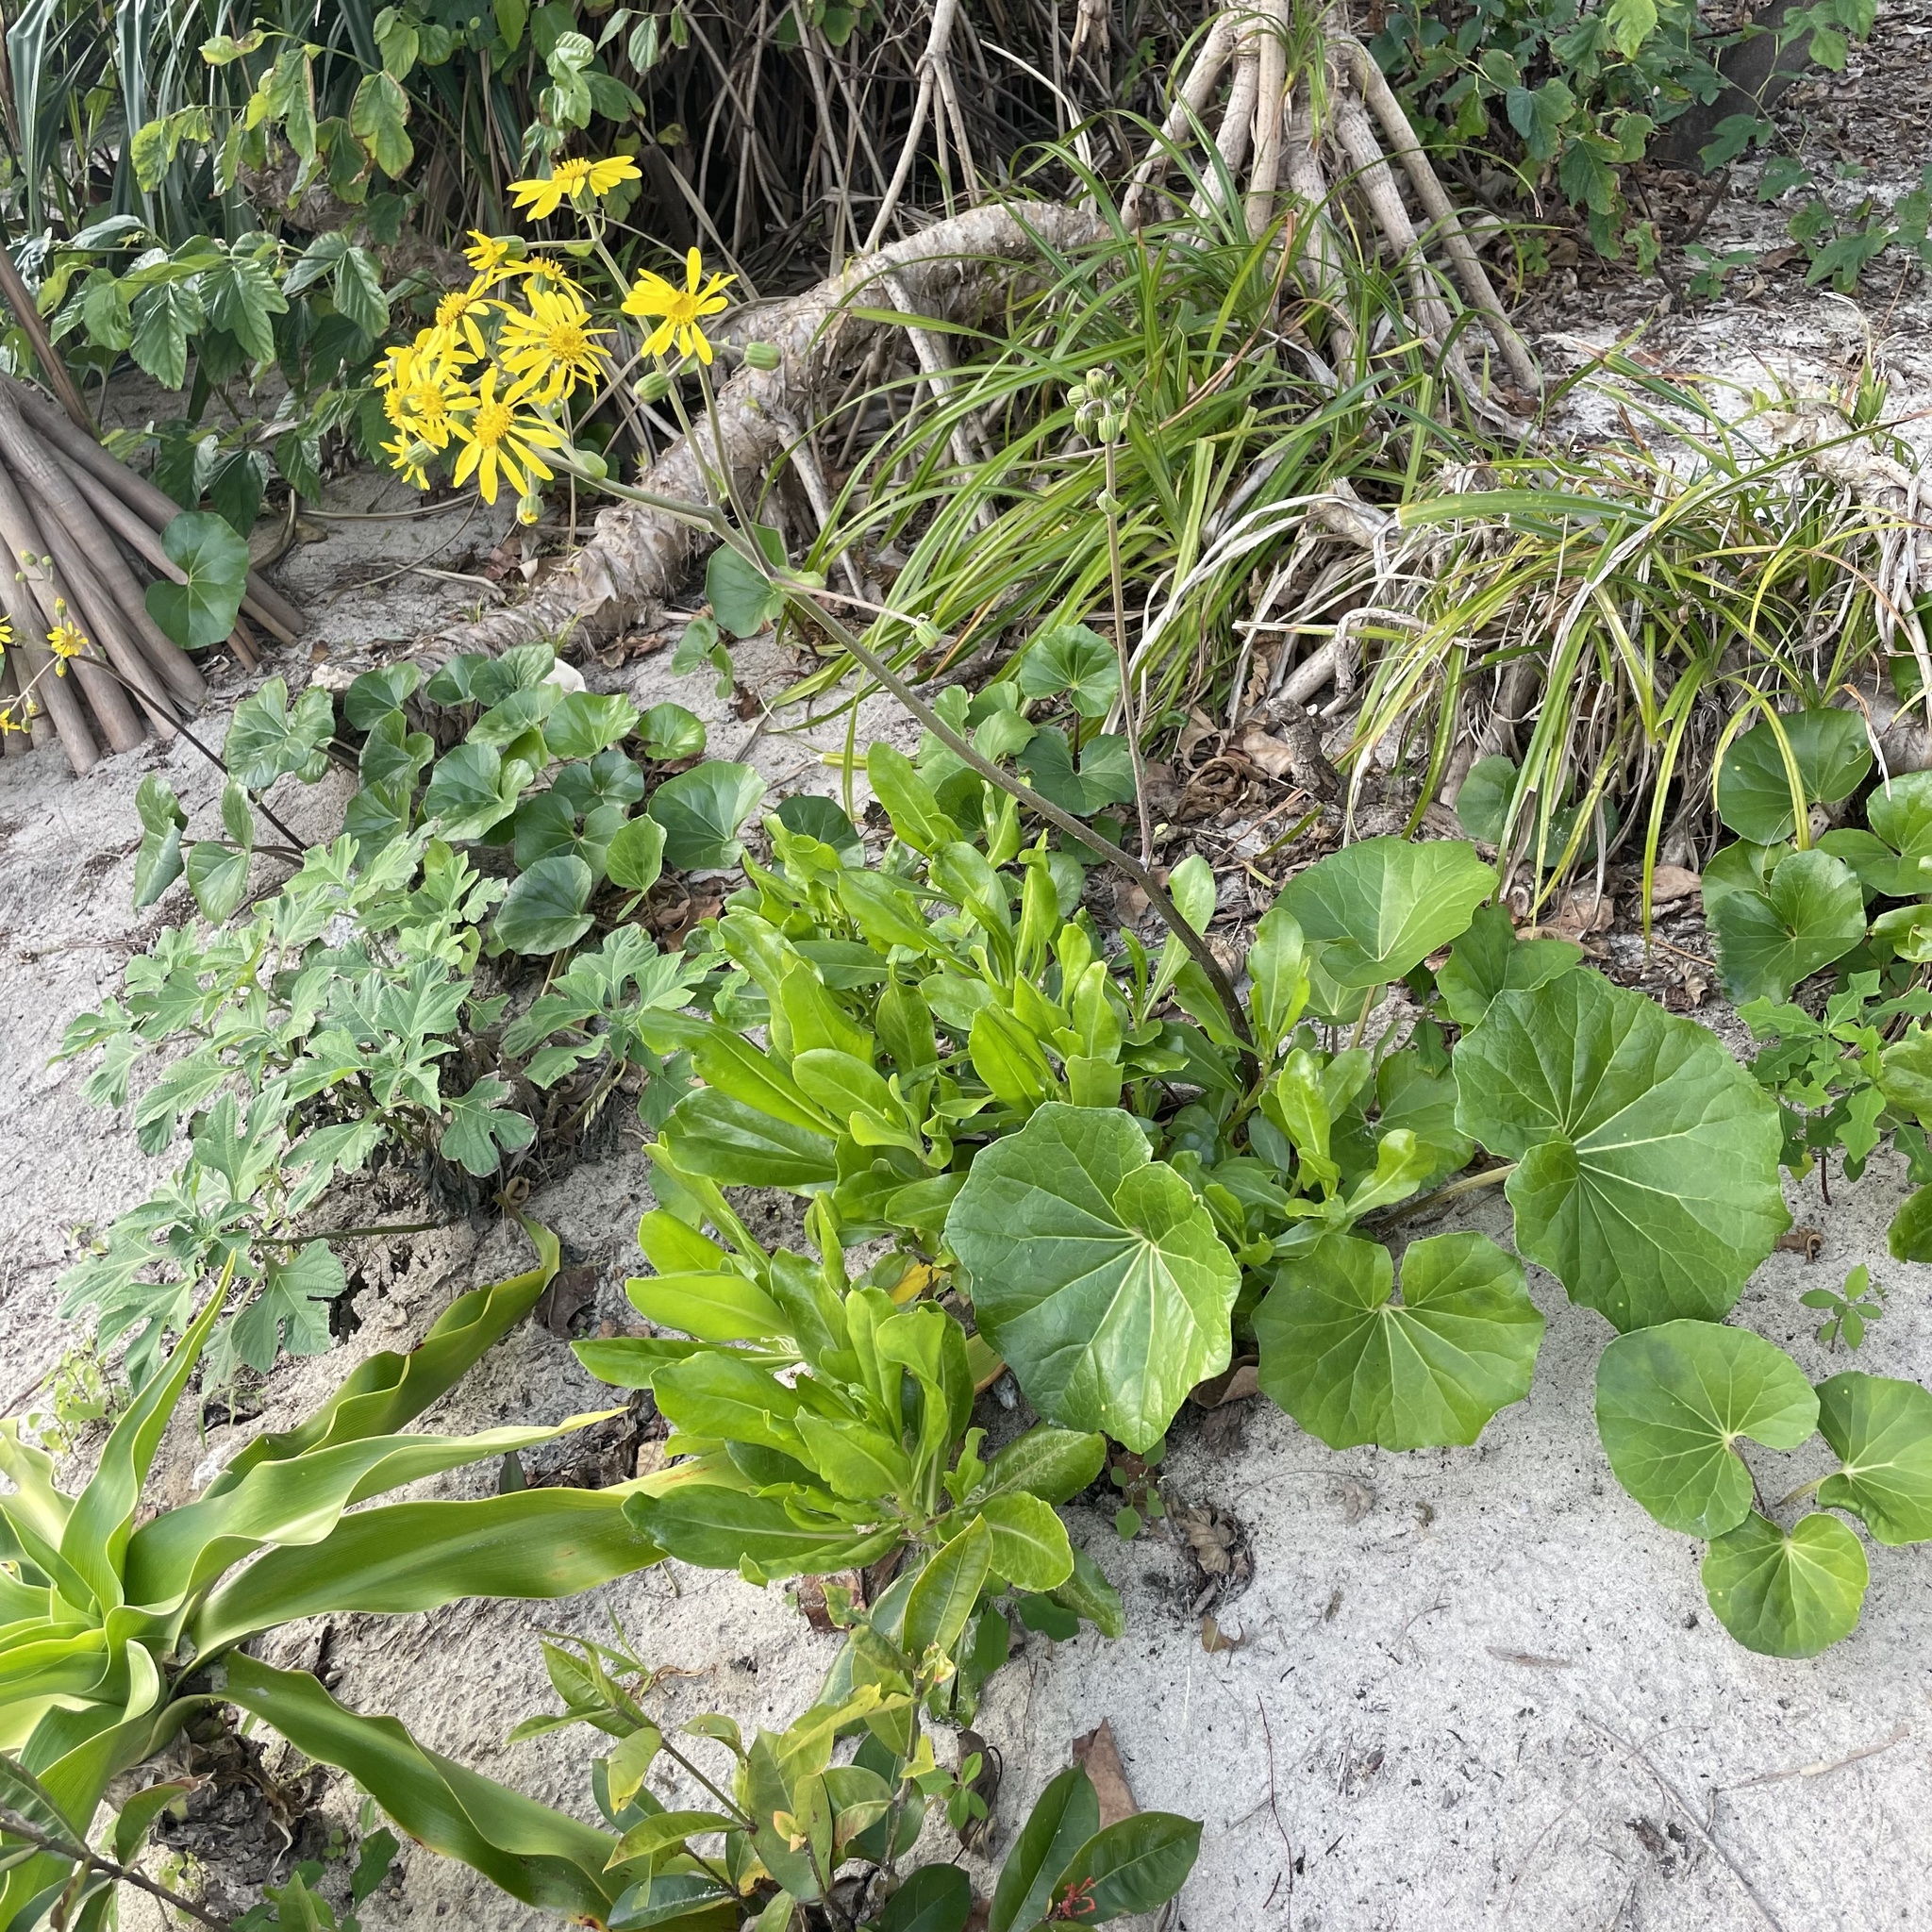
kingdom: Plantae
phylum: Tracheophyta
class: Magnoliopsida
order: Asterales
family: Asteraceae
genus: Farfugium
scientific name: Farfugium japonicum
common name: Leopardplant
